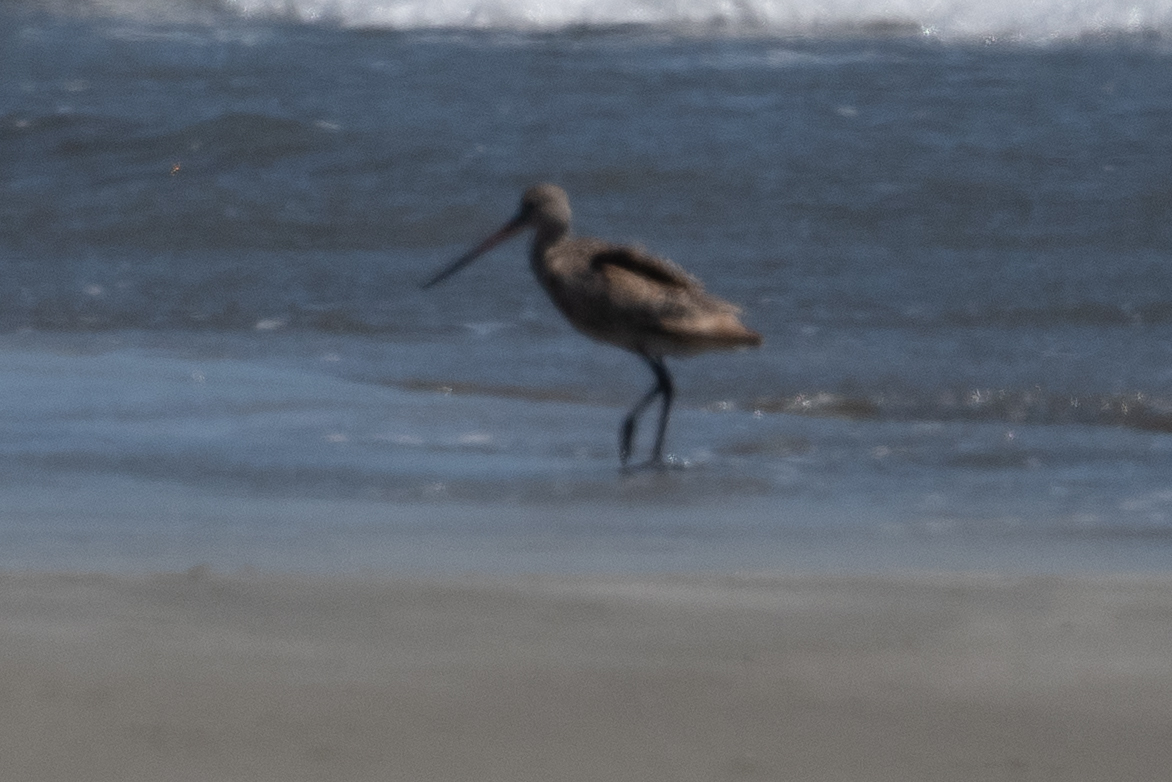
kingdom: Animalia
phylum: Chordata
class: Aves
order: Charadriiformes
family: Scolopacidae
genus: Limosa
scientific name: Limosa fedoa
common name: Marbled godwit
